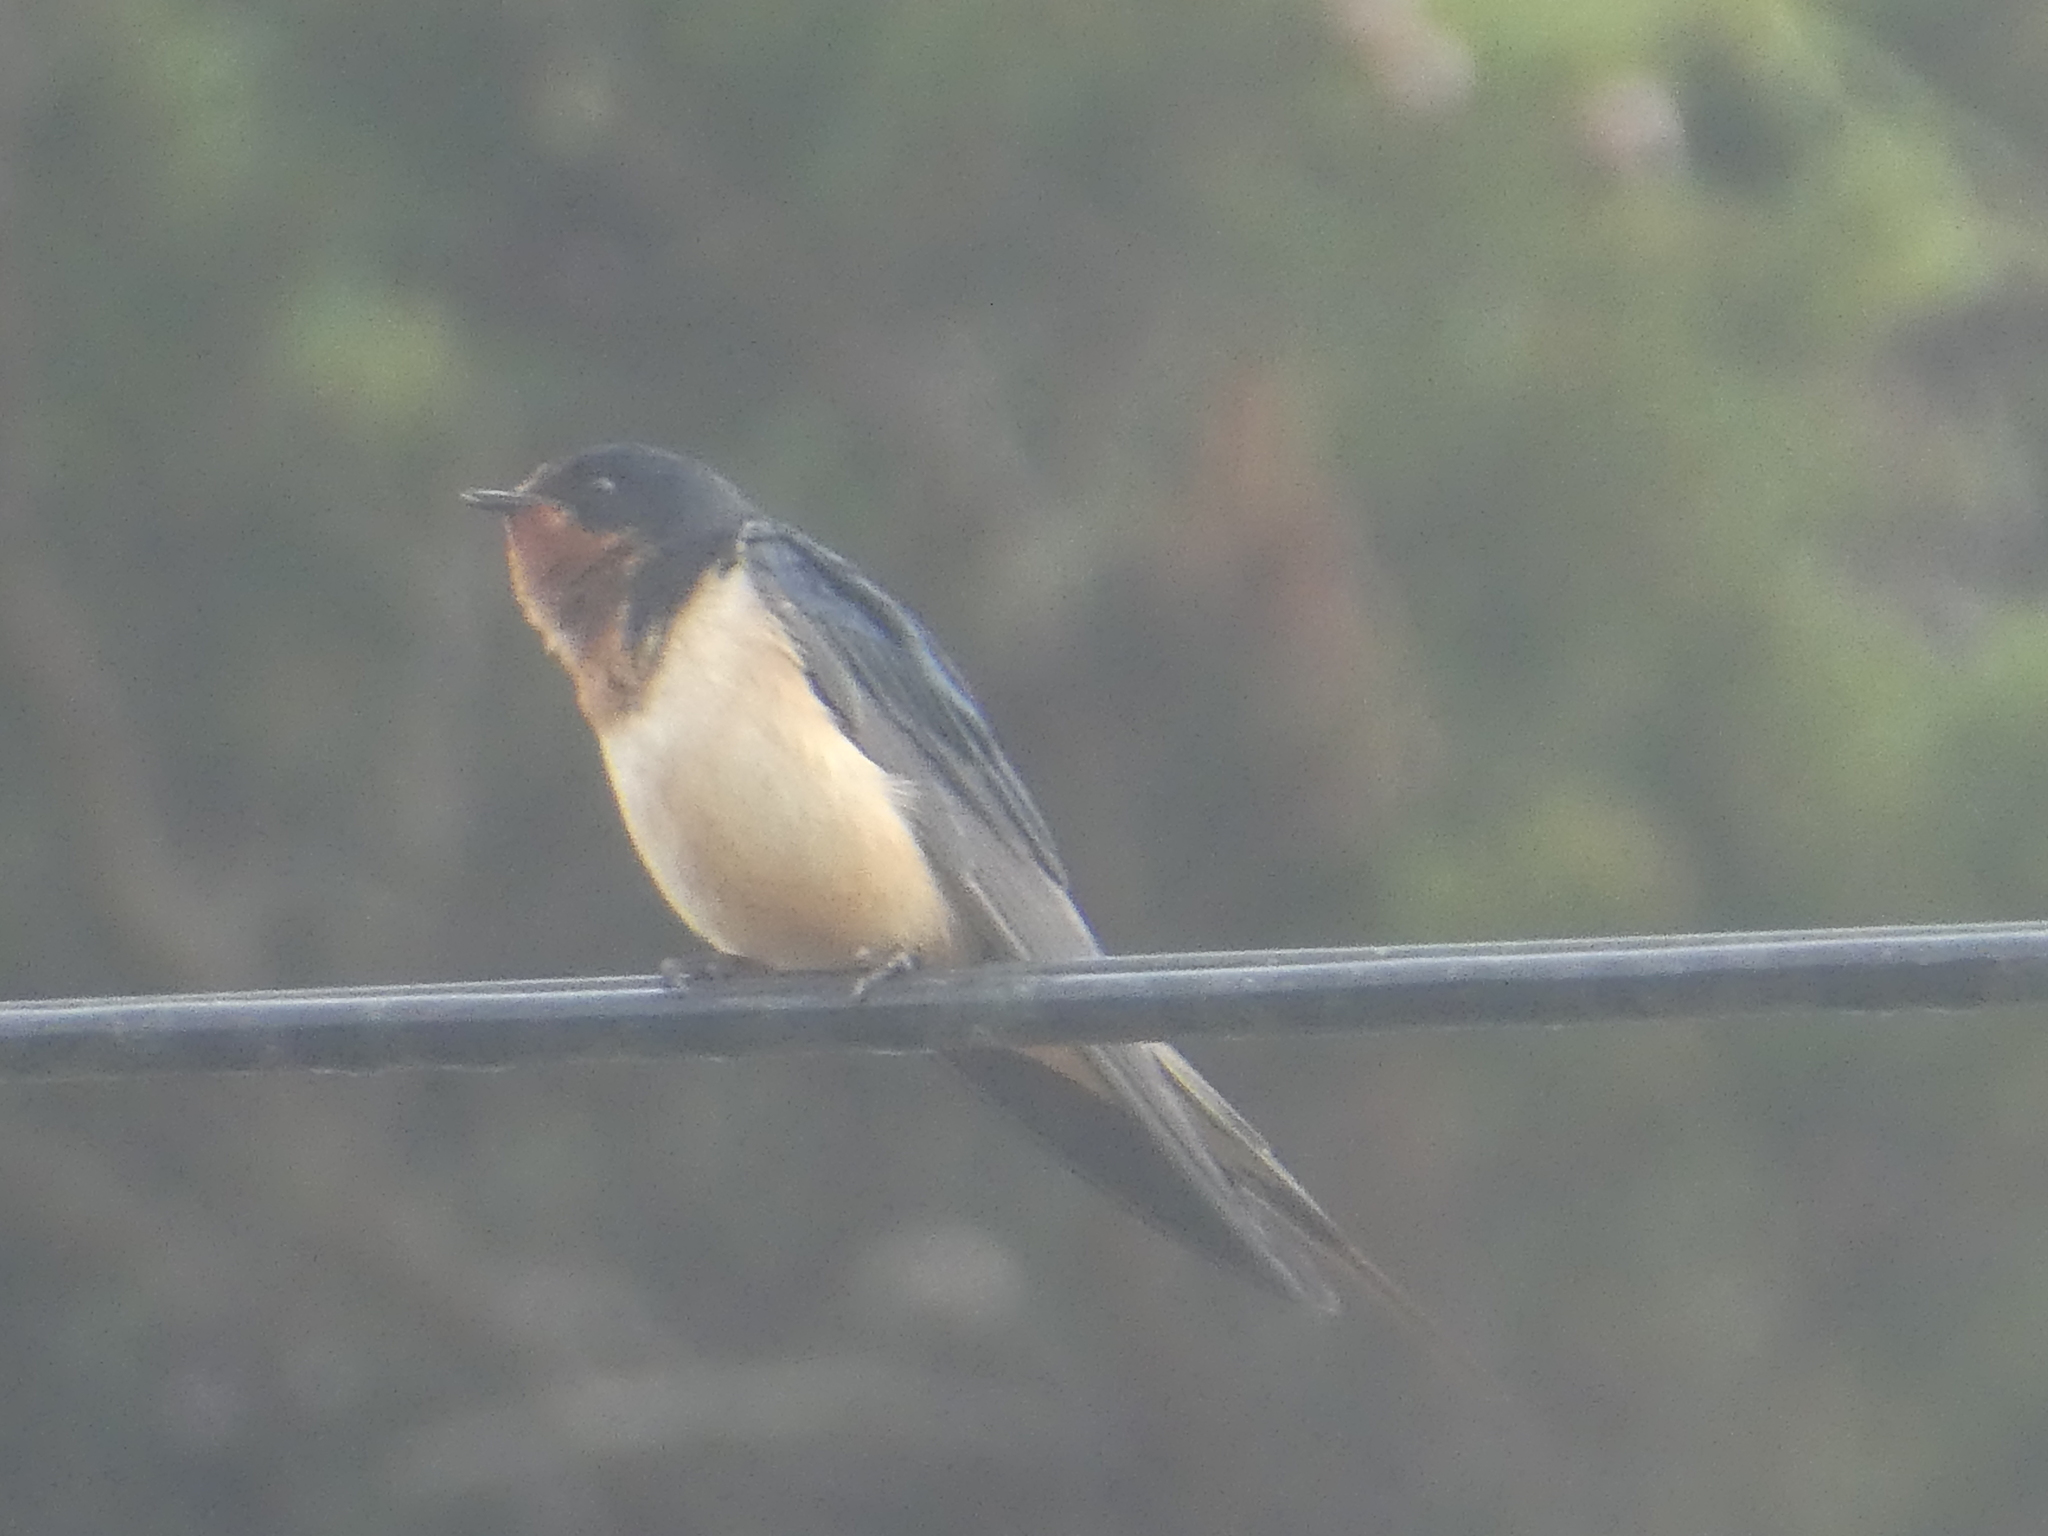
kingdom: Animalia
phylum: Chordata
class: Aves
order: Passeriformes
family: Hirundinidae
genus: Hirundo
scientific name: Hirundo rustica
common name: Barn swallow
